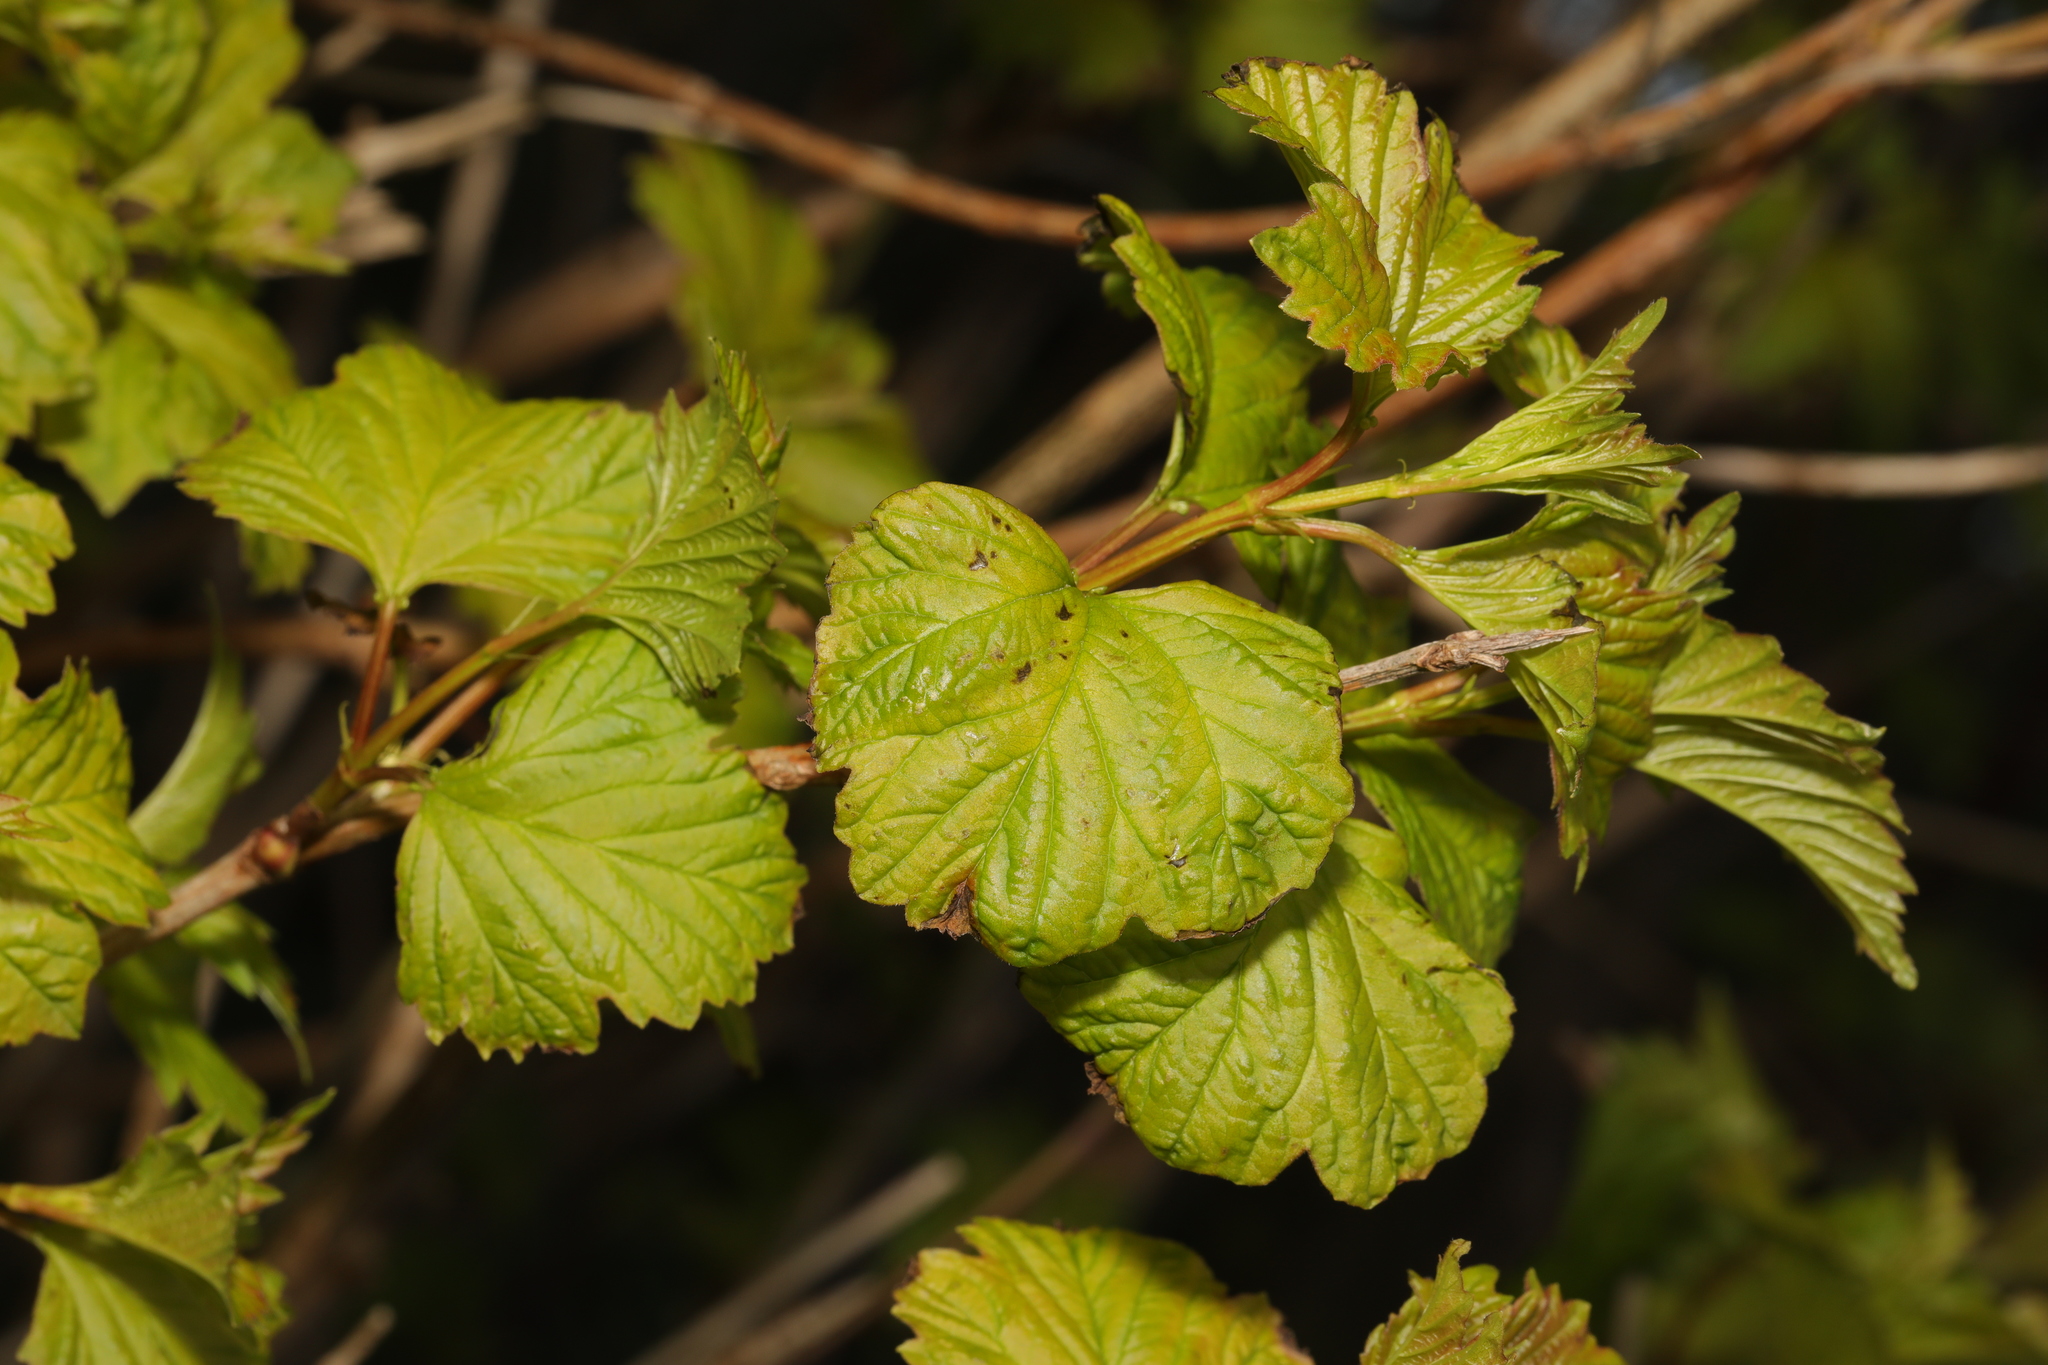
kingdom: Plantae
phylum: Tracheophyta
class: Magnoliopsida
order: Dipsacales
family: Viburnaceae
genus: Viburnum
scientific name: Viburnum opulus
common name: Guelder-rose
